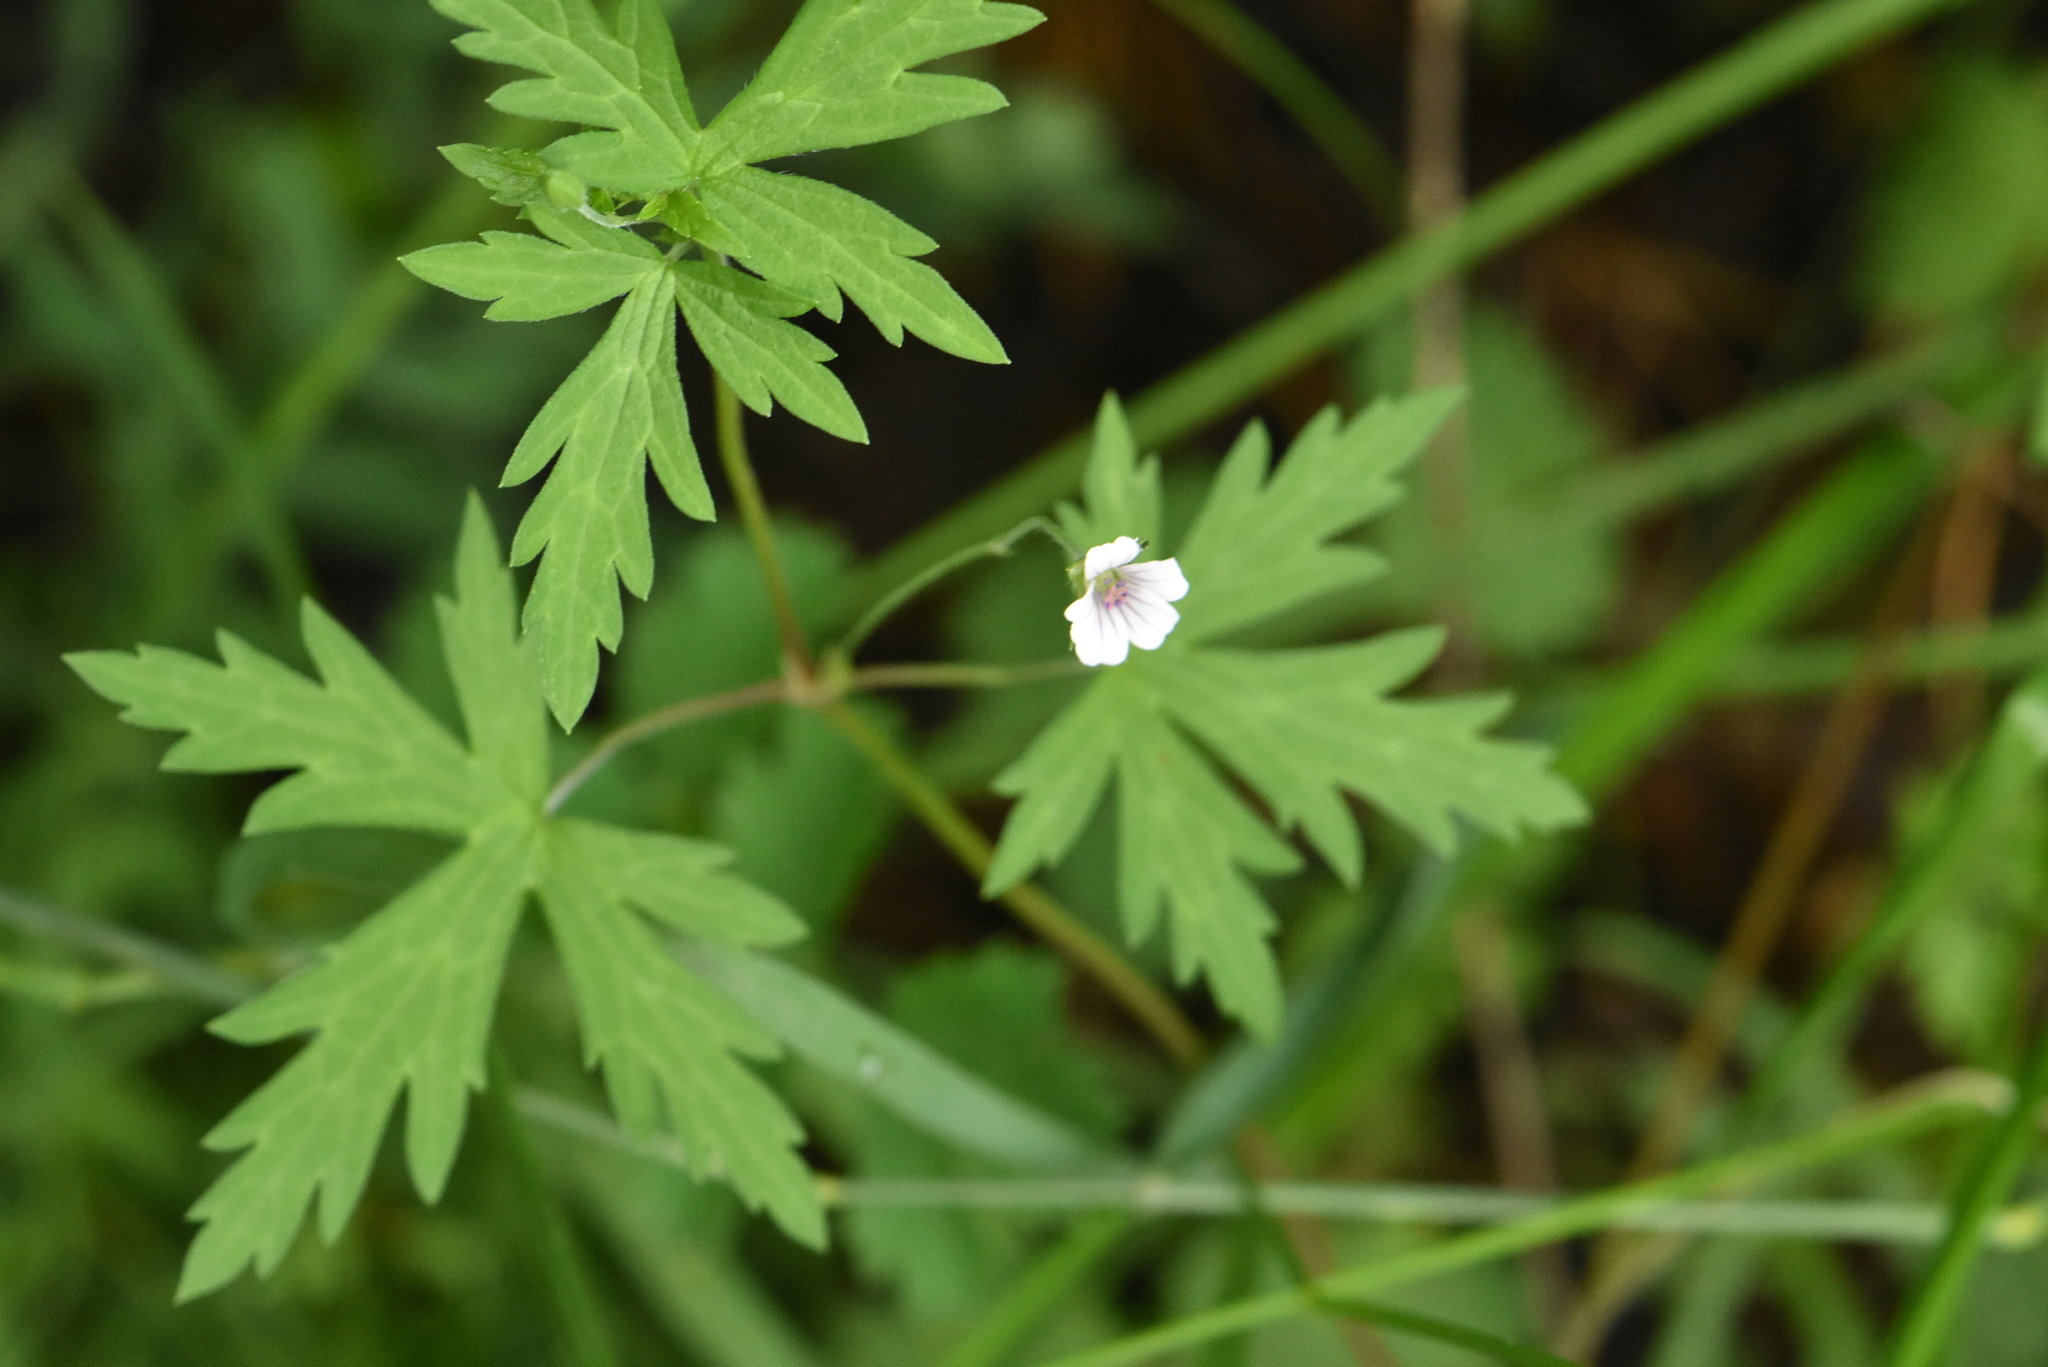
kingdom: Plantae
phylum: Tracheophyta
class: Magnoliopsida
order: Geraniales
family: Geraniaceae
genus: Geranium
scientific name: Geranium sibiricum
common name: Siberian crane's-bill
